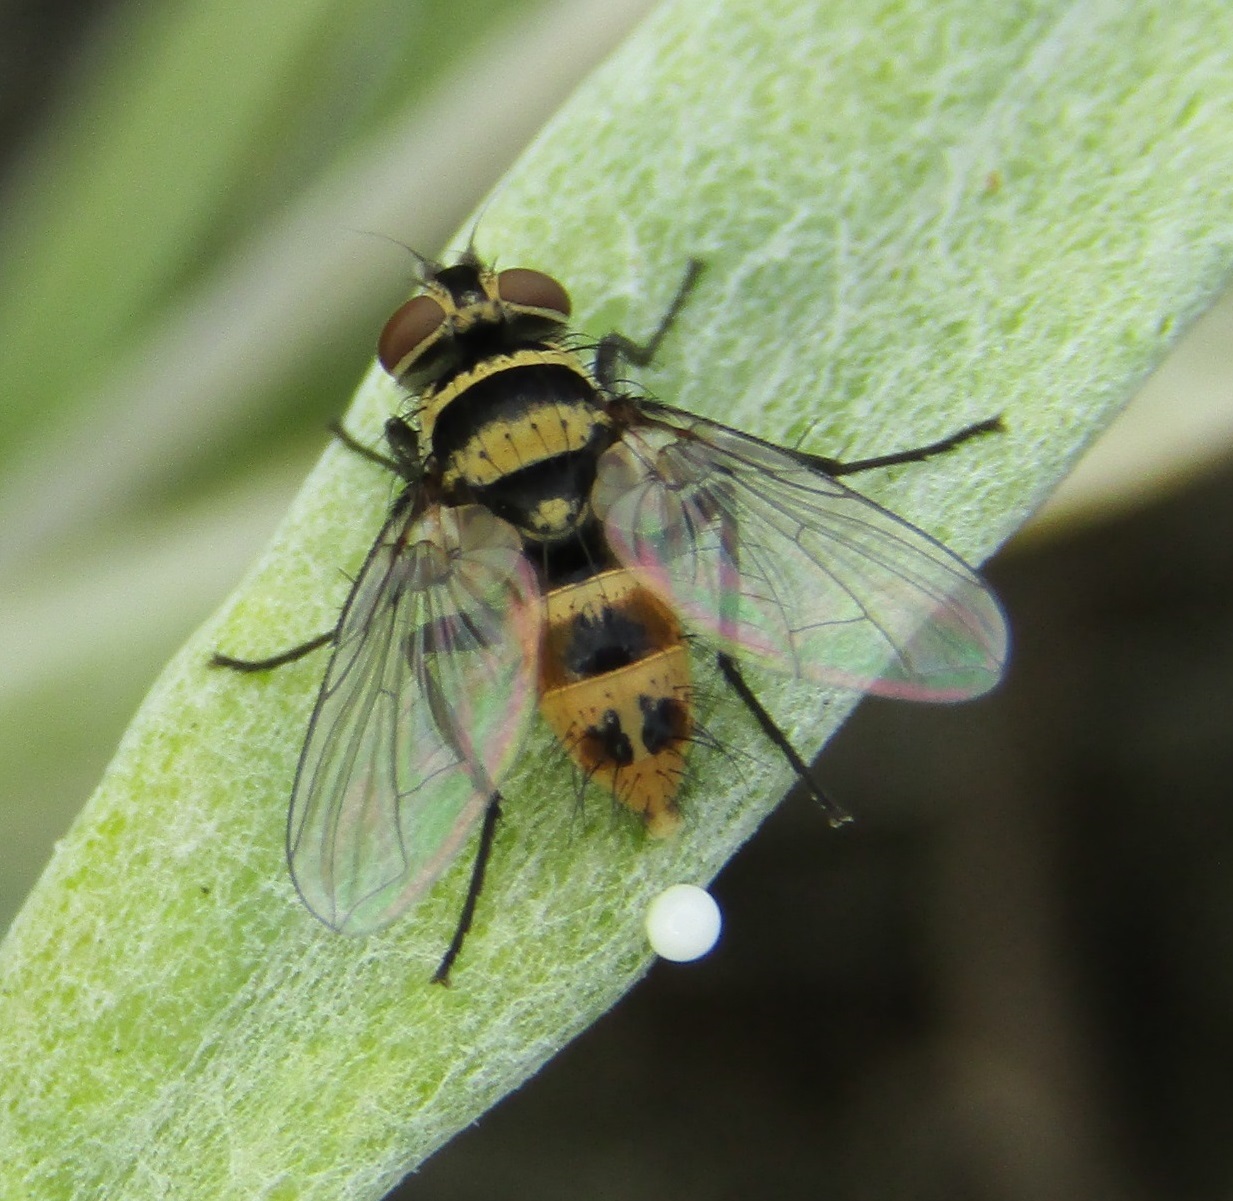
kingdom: Animalia
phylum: Arthropoda
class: Insecta
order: Diptera
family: Tachinidae
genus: Trigonospila
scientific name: Trigonospila brevifacies
